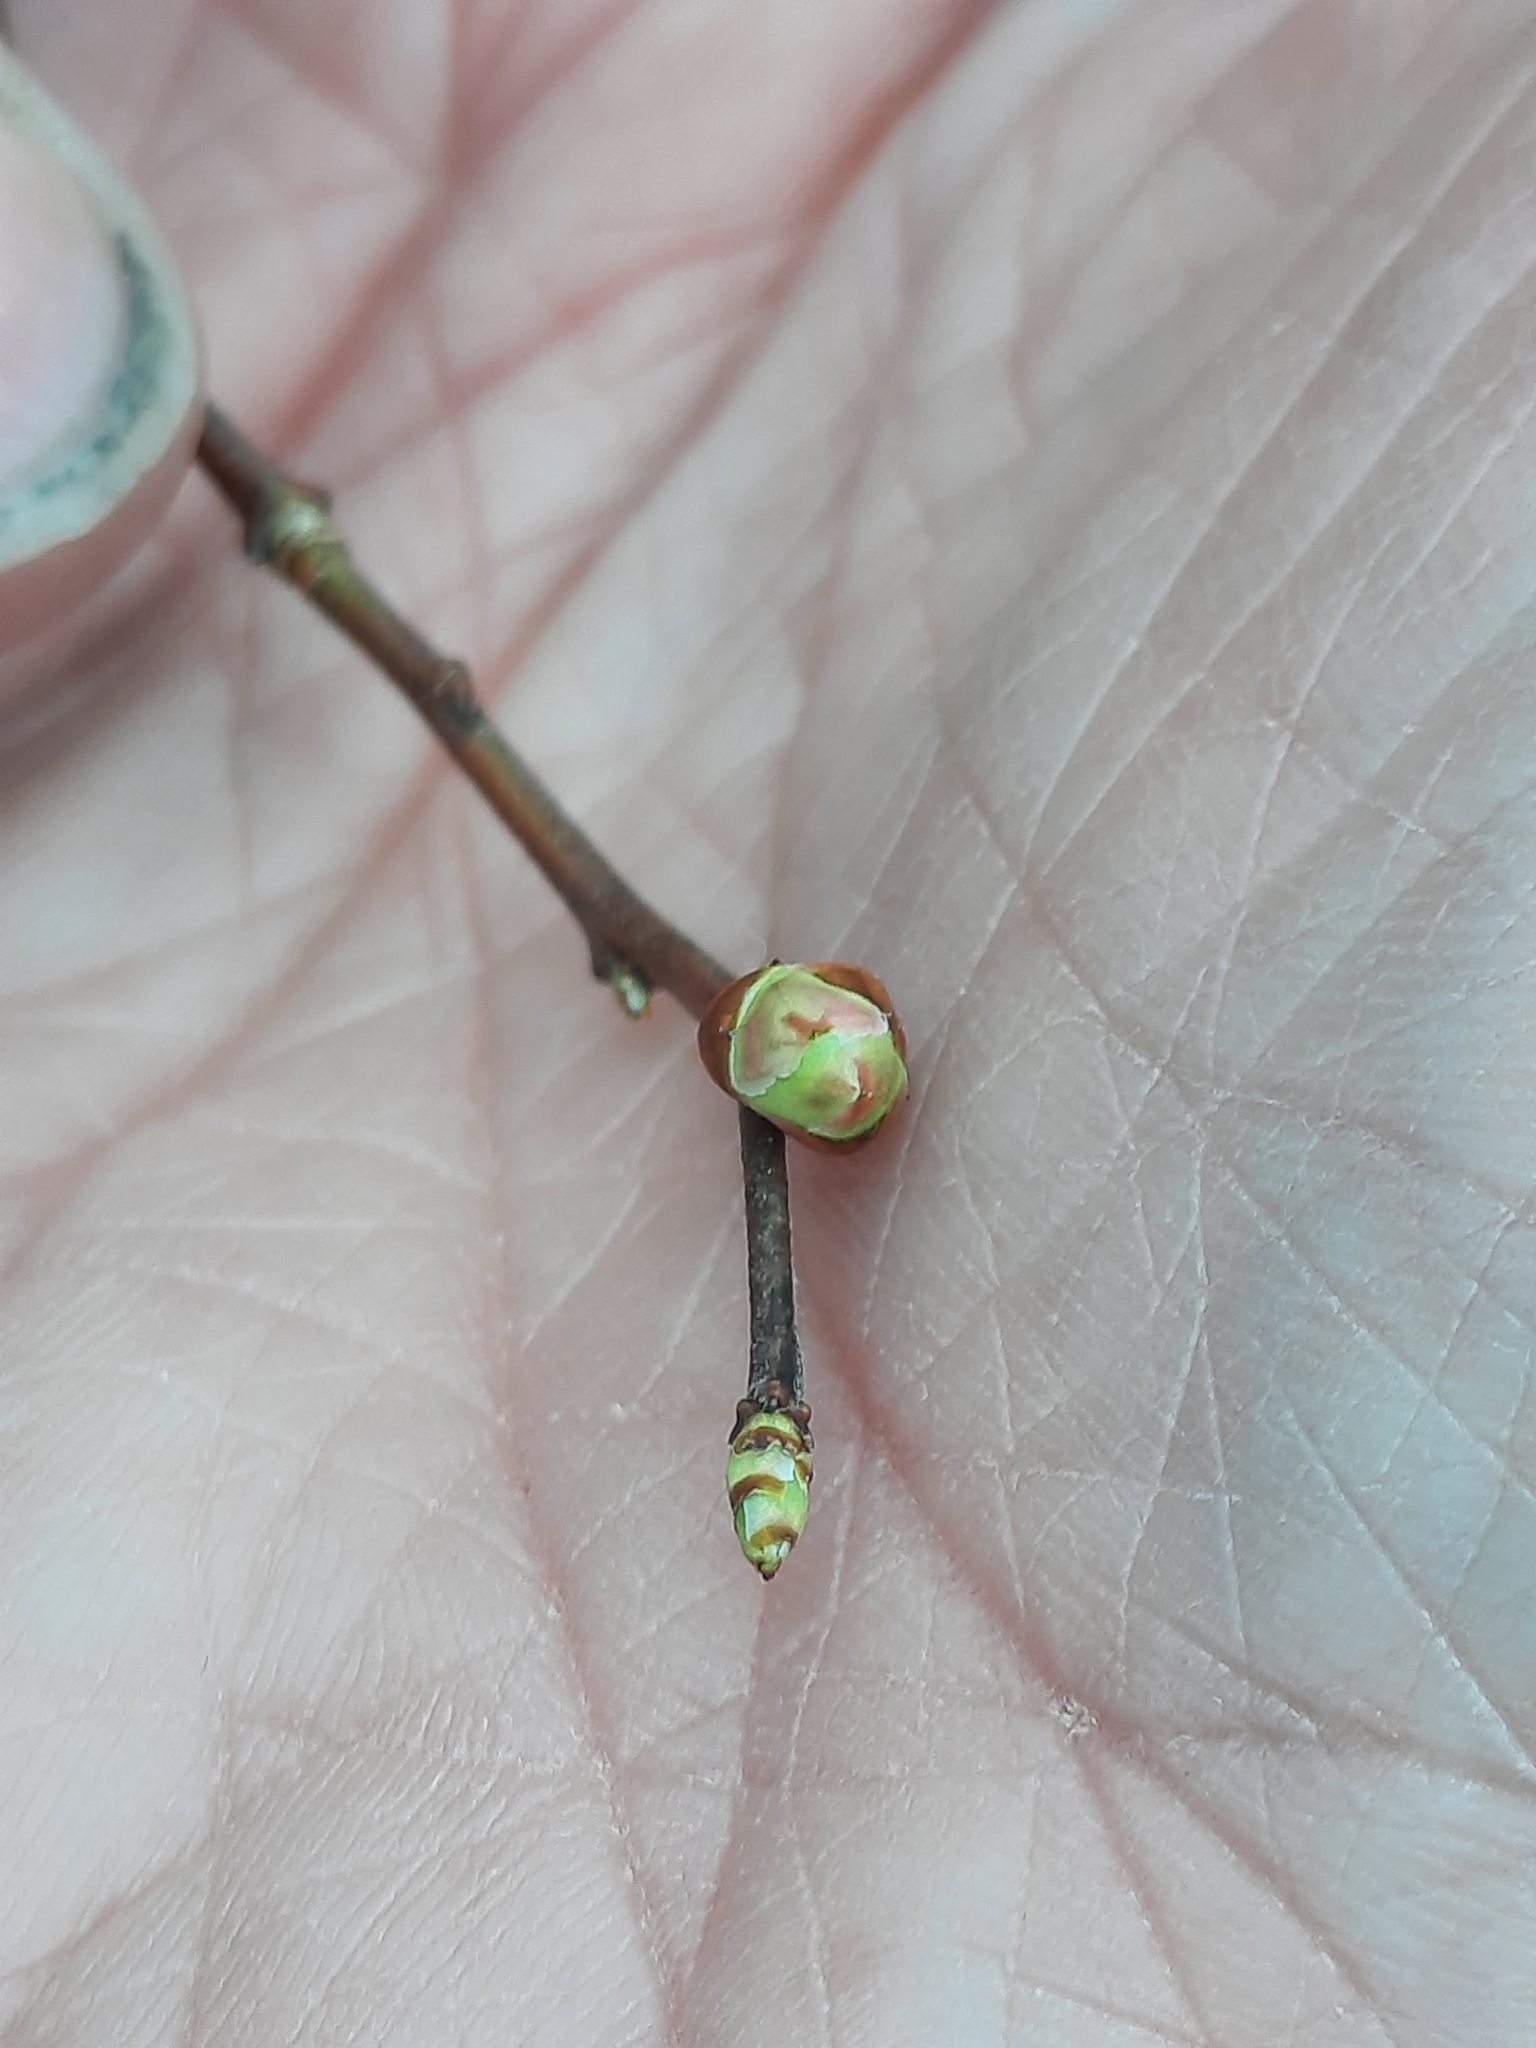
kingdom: Plantae
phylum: Tracheophyta
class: Magnoliopsida
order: Ericales
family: Ericaceae
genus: Vaccinium
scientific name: Vaccinium corymbosum
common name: Blueberry
